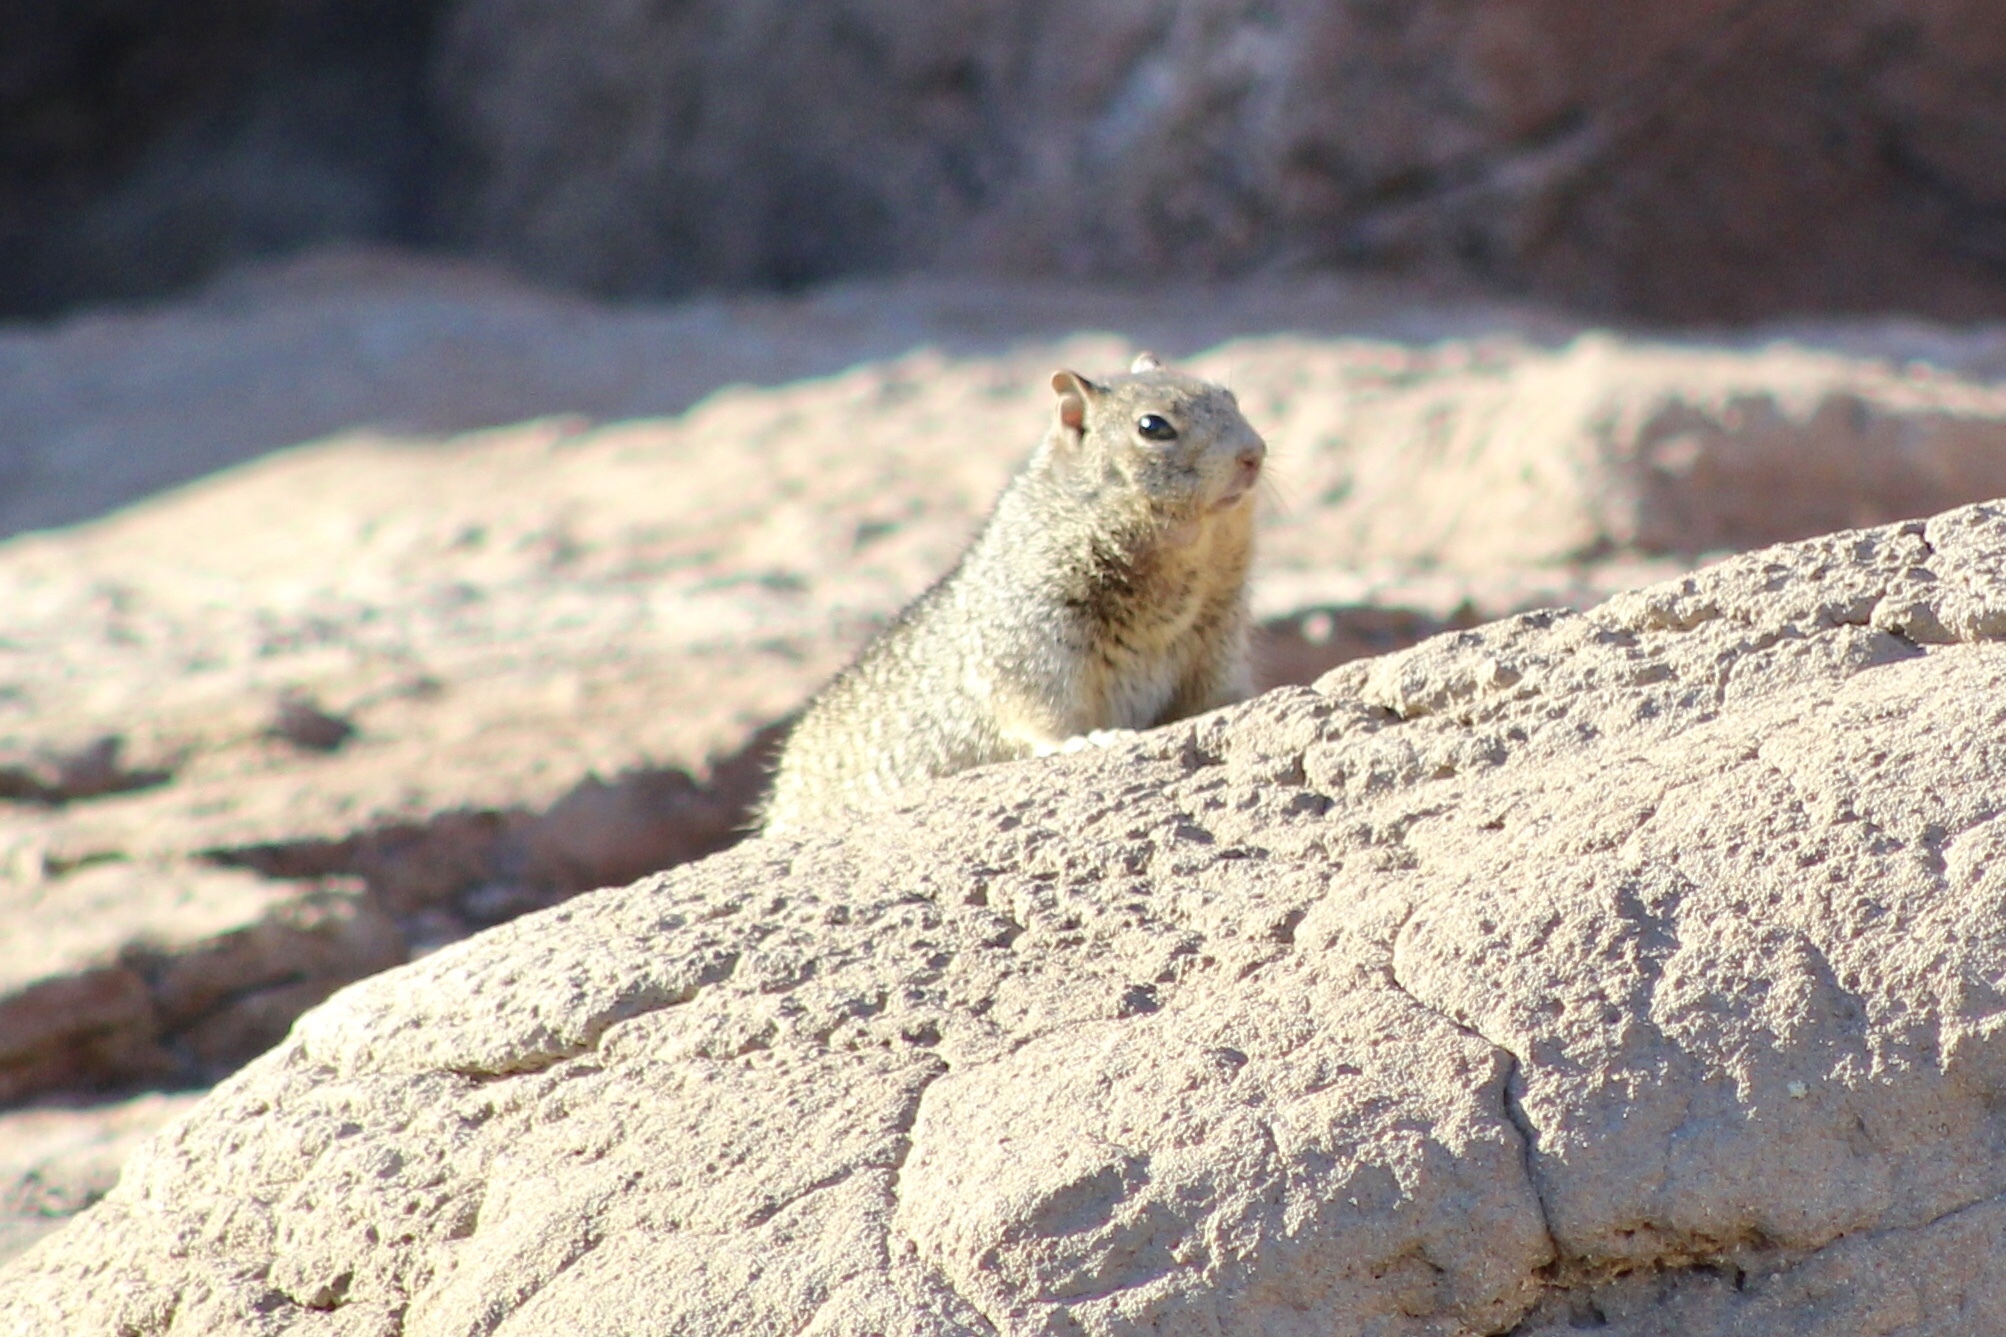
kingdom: Animalia
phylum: Chordata
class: Mammalia
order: Rodentia
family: Sciuridae
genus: Otospermophilus
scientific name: Otospermophilus variegatus
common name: Rock squirrel
